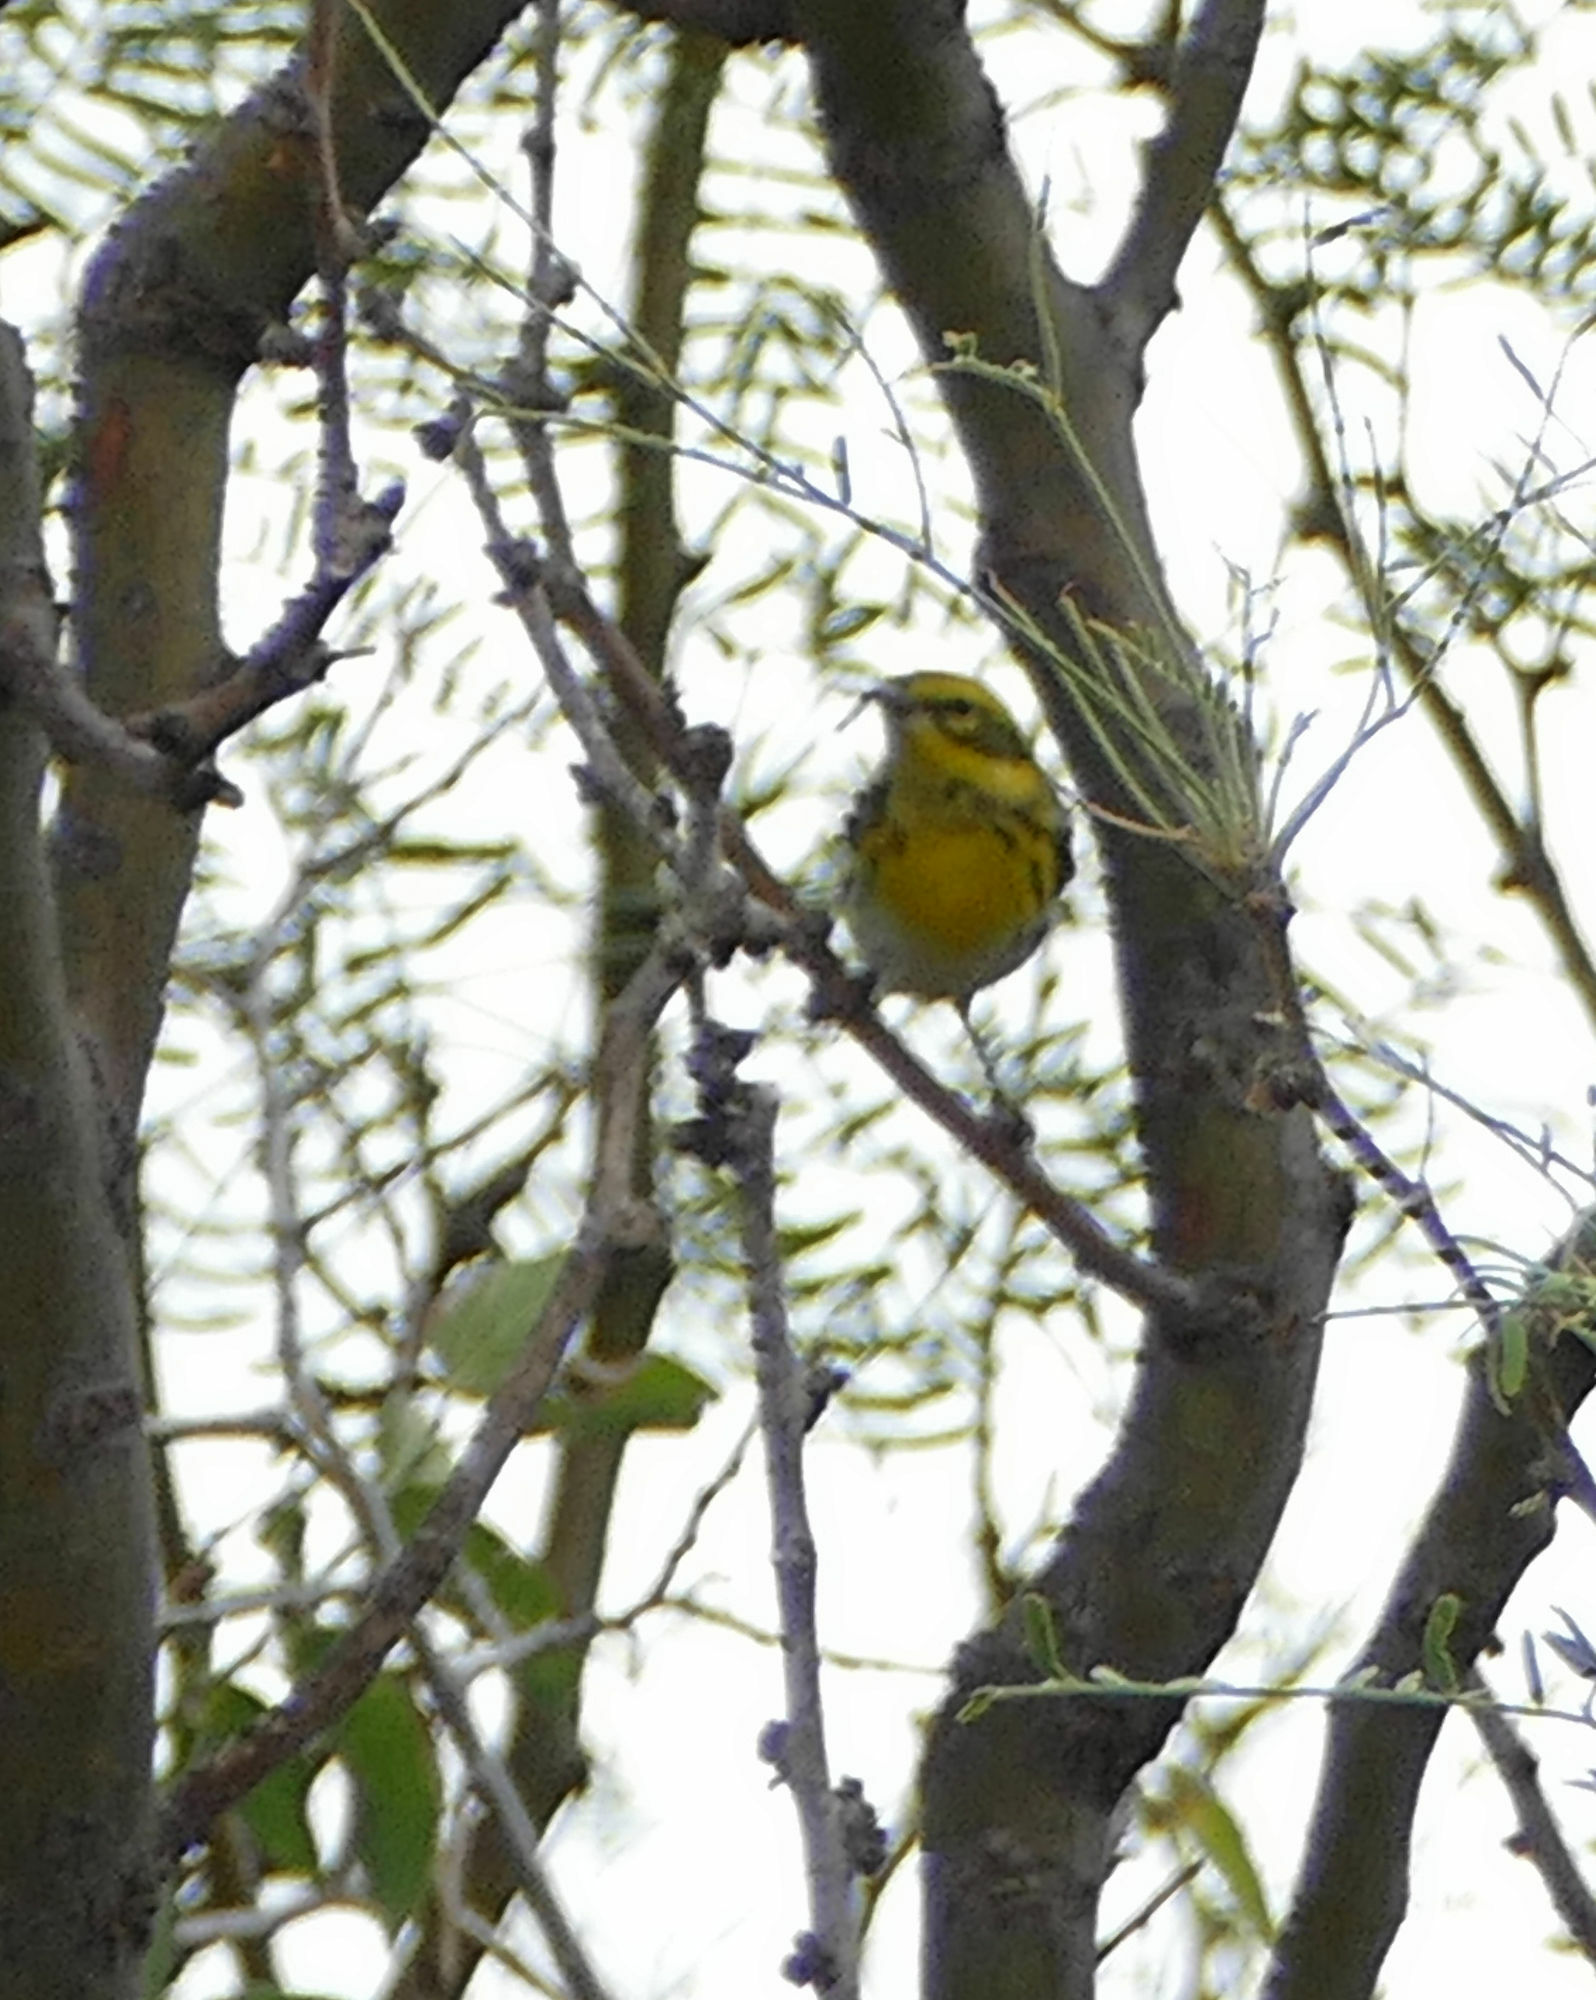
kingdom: Animalia
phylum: Chordata
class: Aves
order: Passeriformes
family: Parulidae
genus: Setophaga
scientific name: Setophaga townsendi
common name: Townsend's warbler
